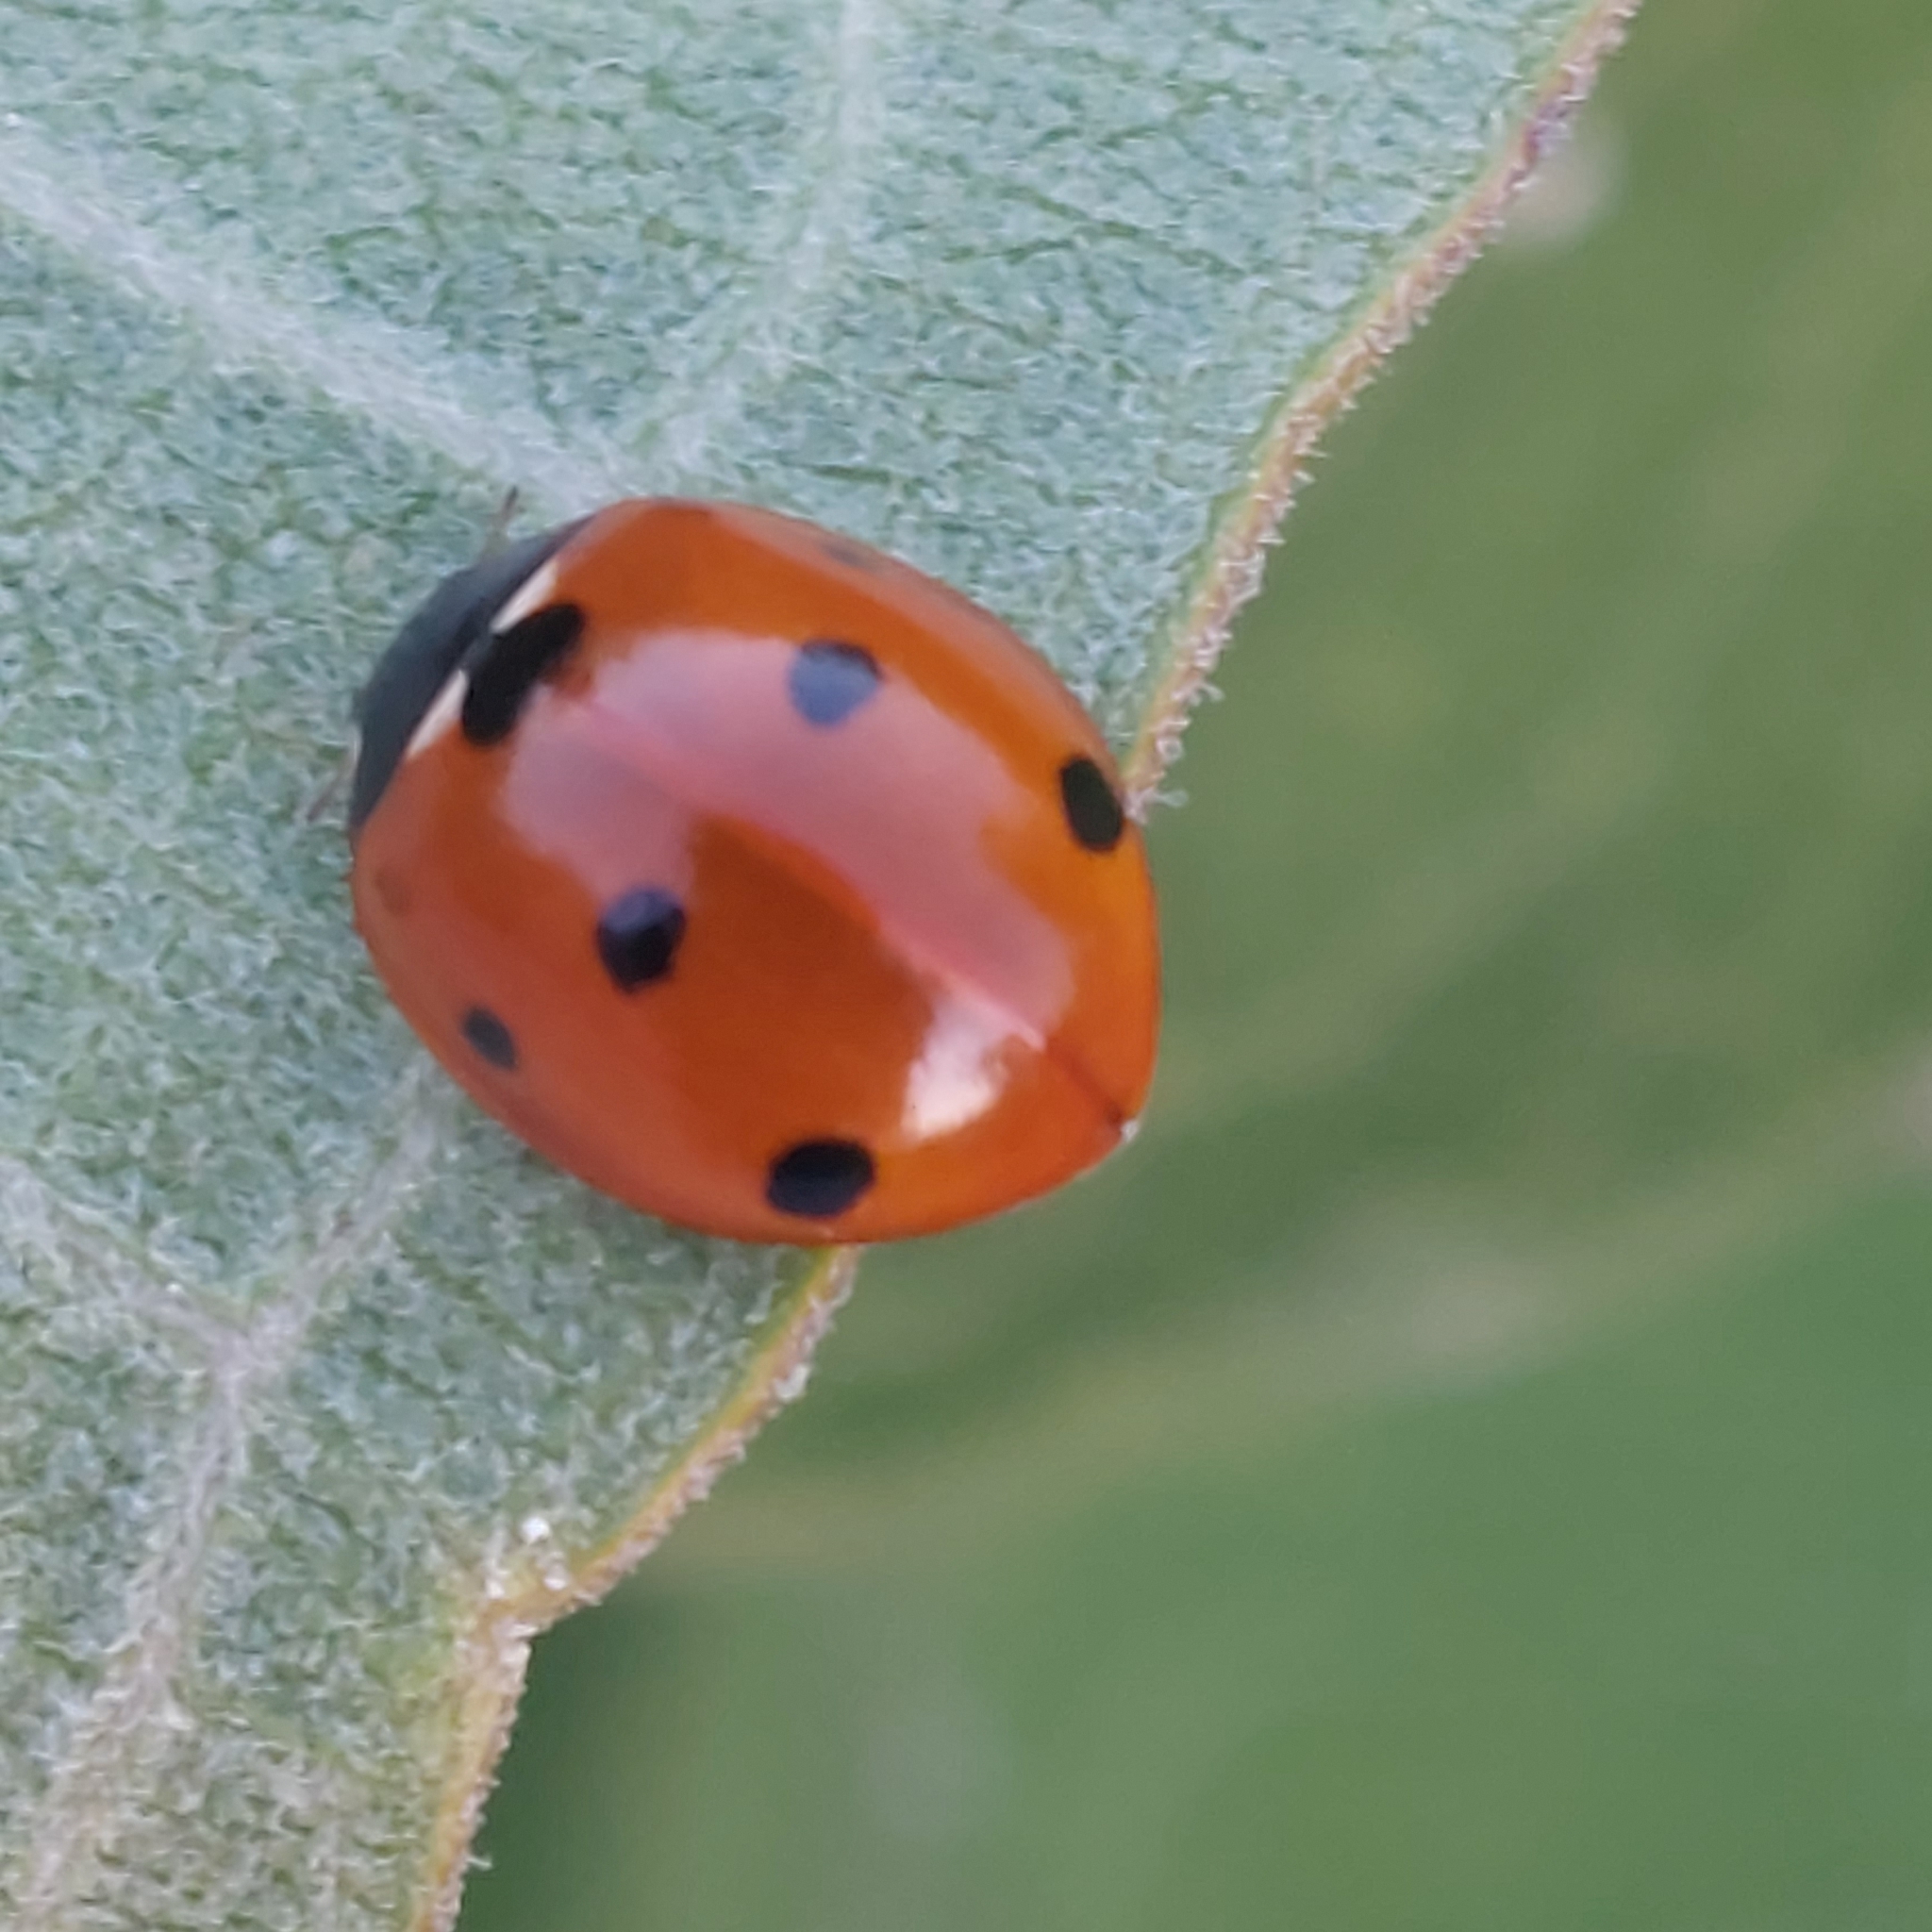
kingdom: Animalia
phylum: Arthropoda
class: Insecta
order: Coleoptera
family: Coccinellidae
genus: Coccinella
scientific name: Coccinella septempunctata
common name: Sevenspotted lady beetle
